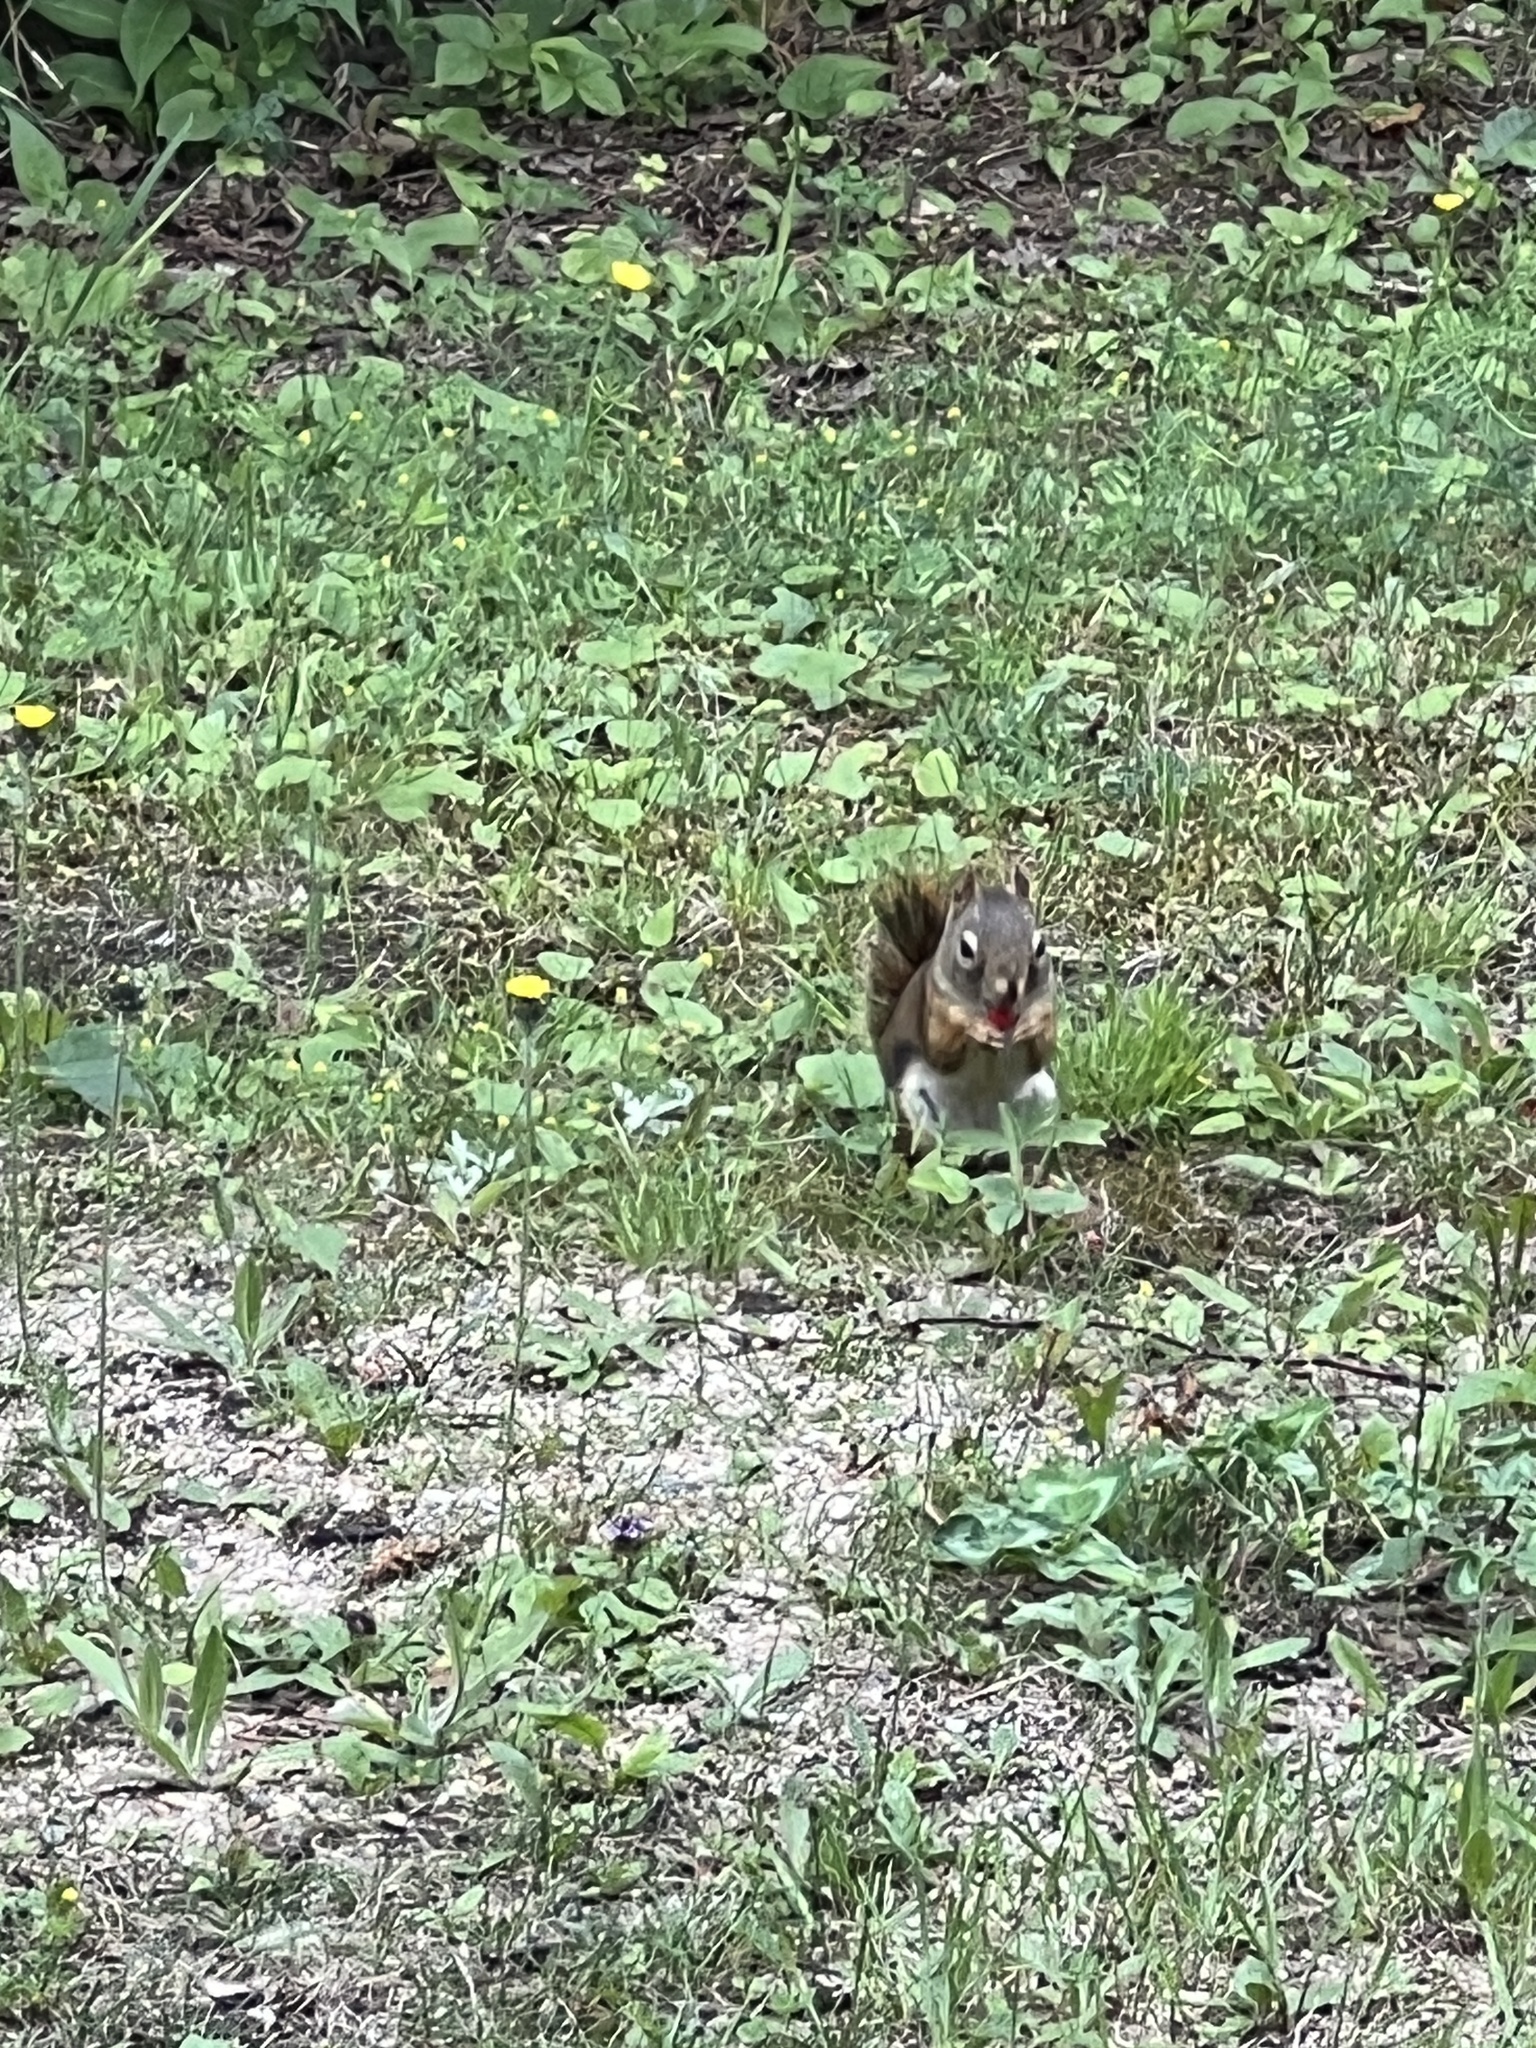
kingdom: Animalia
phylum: Chordata
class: Mammalia
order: Rodentia
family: Sciuridae
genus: Tamiasciurus
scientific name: Tamiasciurus hudsonicus
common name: Red squirrel
